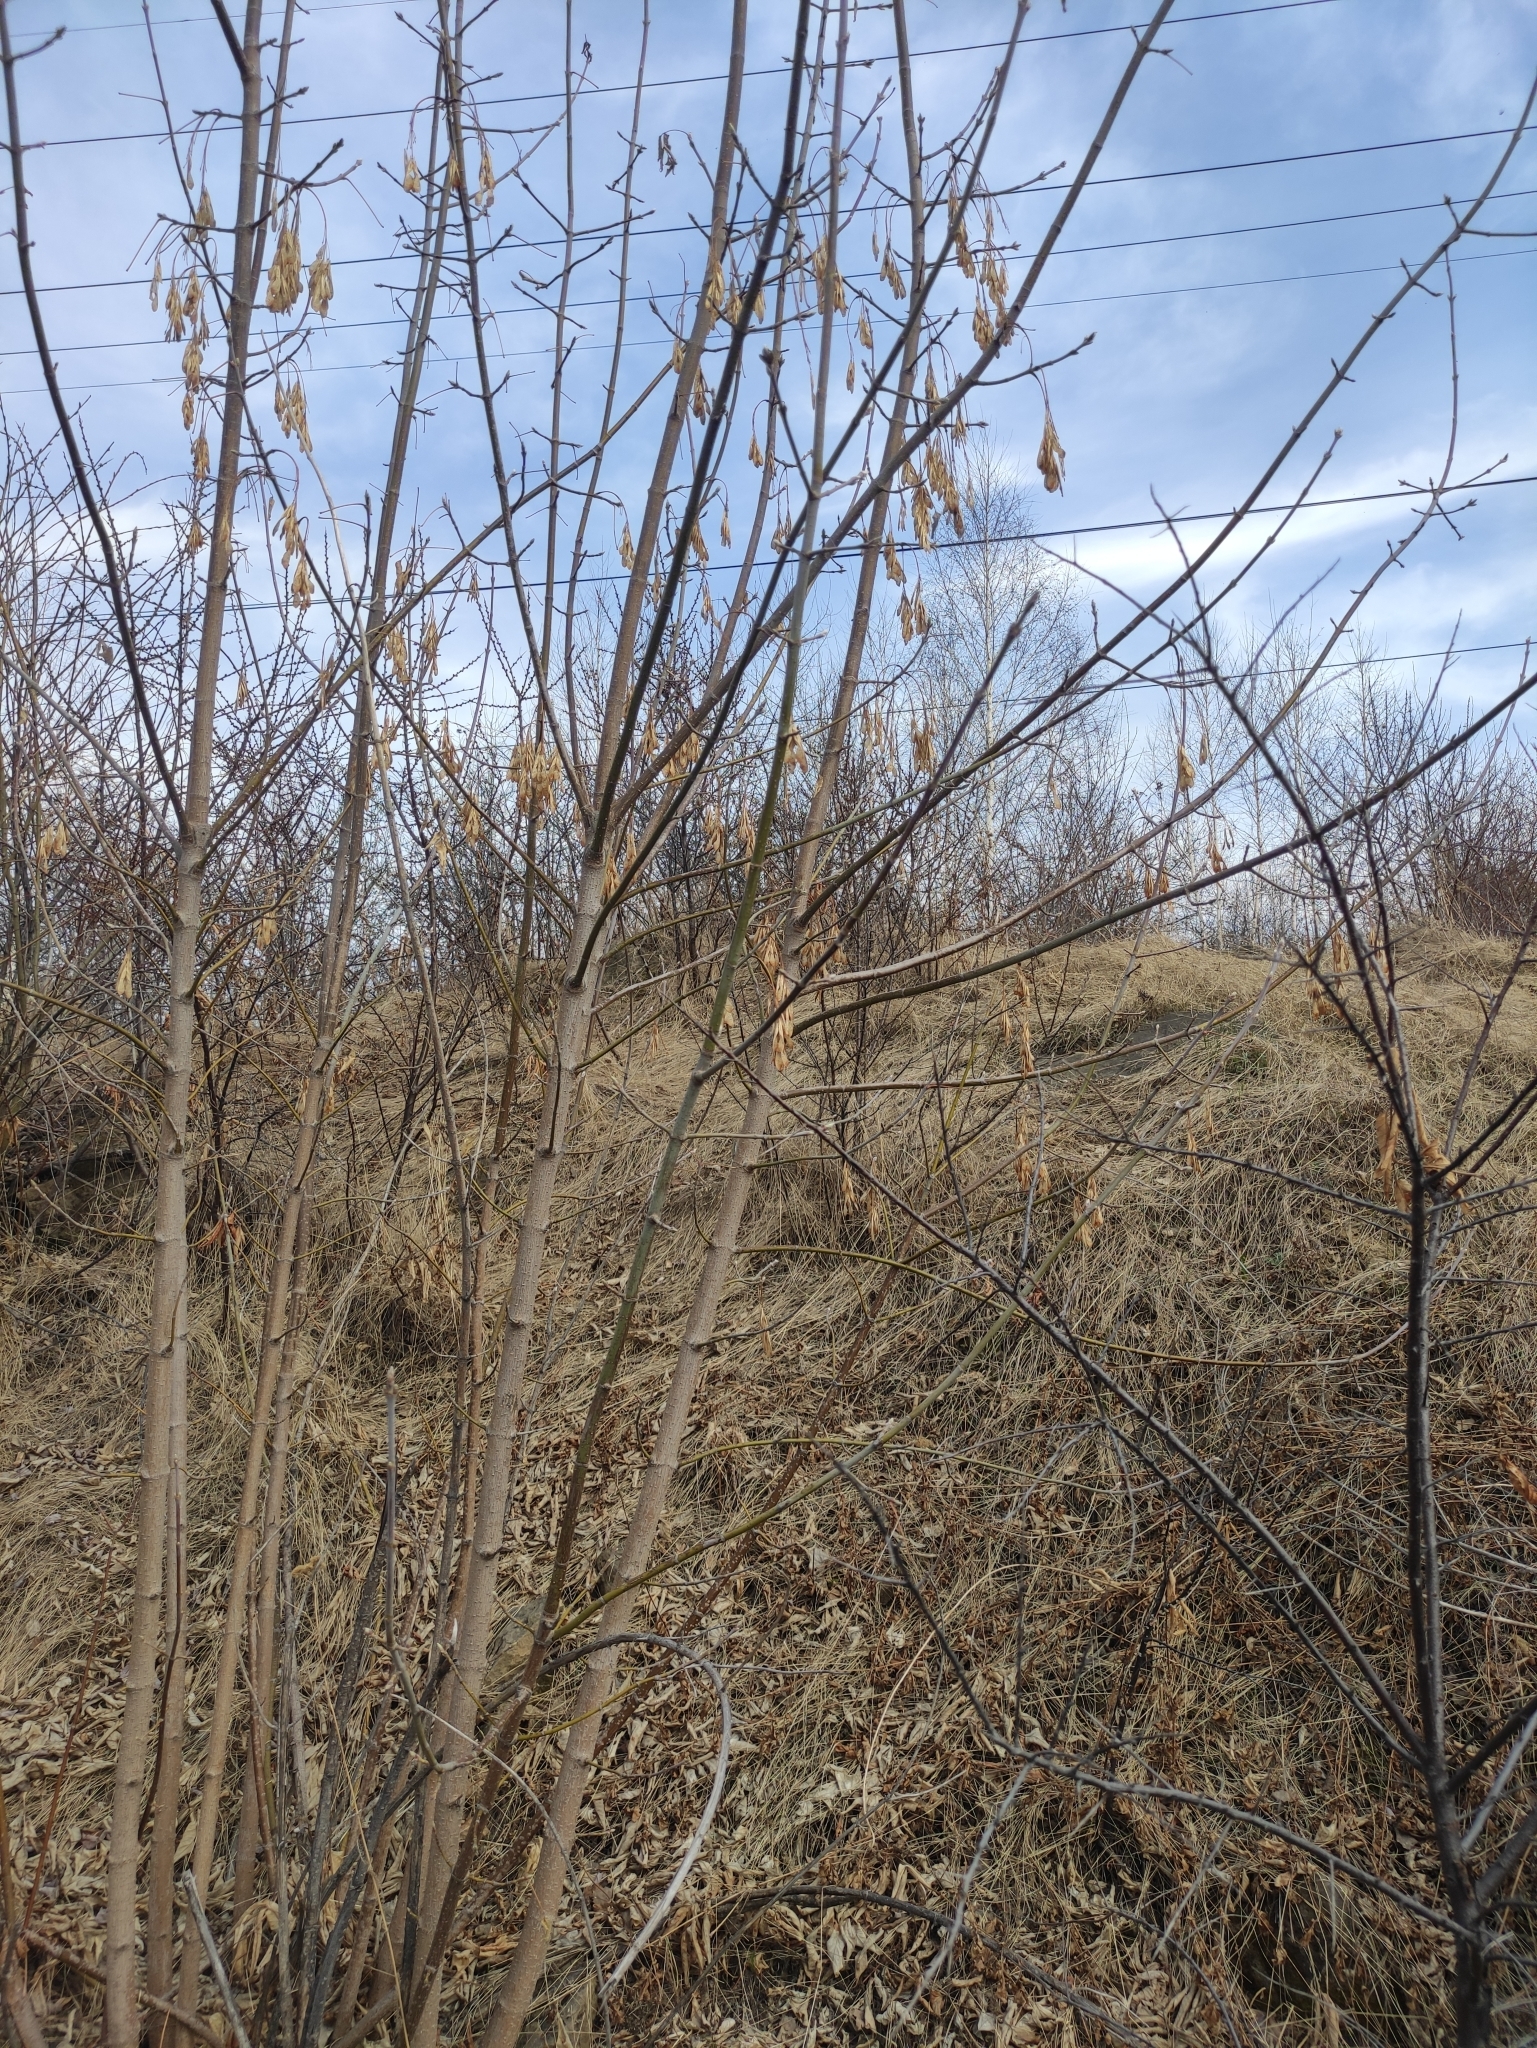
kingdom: Plantae
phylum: Tracheophyta
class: Magnoliopsida
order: Sapindales
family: Sapindaceae
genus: Acer
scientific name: Acer negundo
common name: Ashleaf maple
